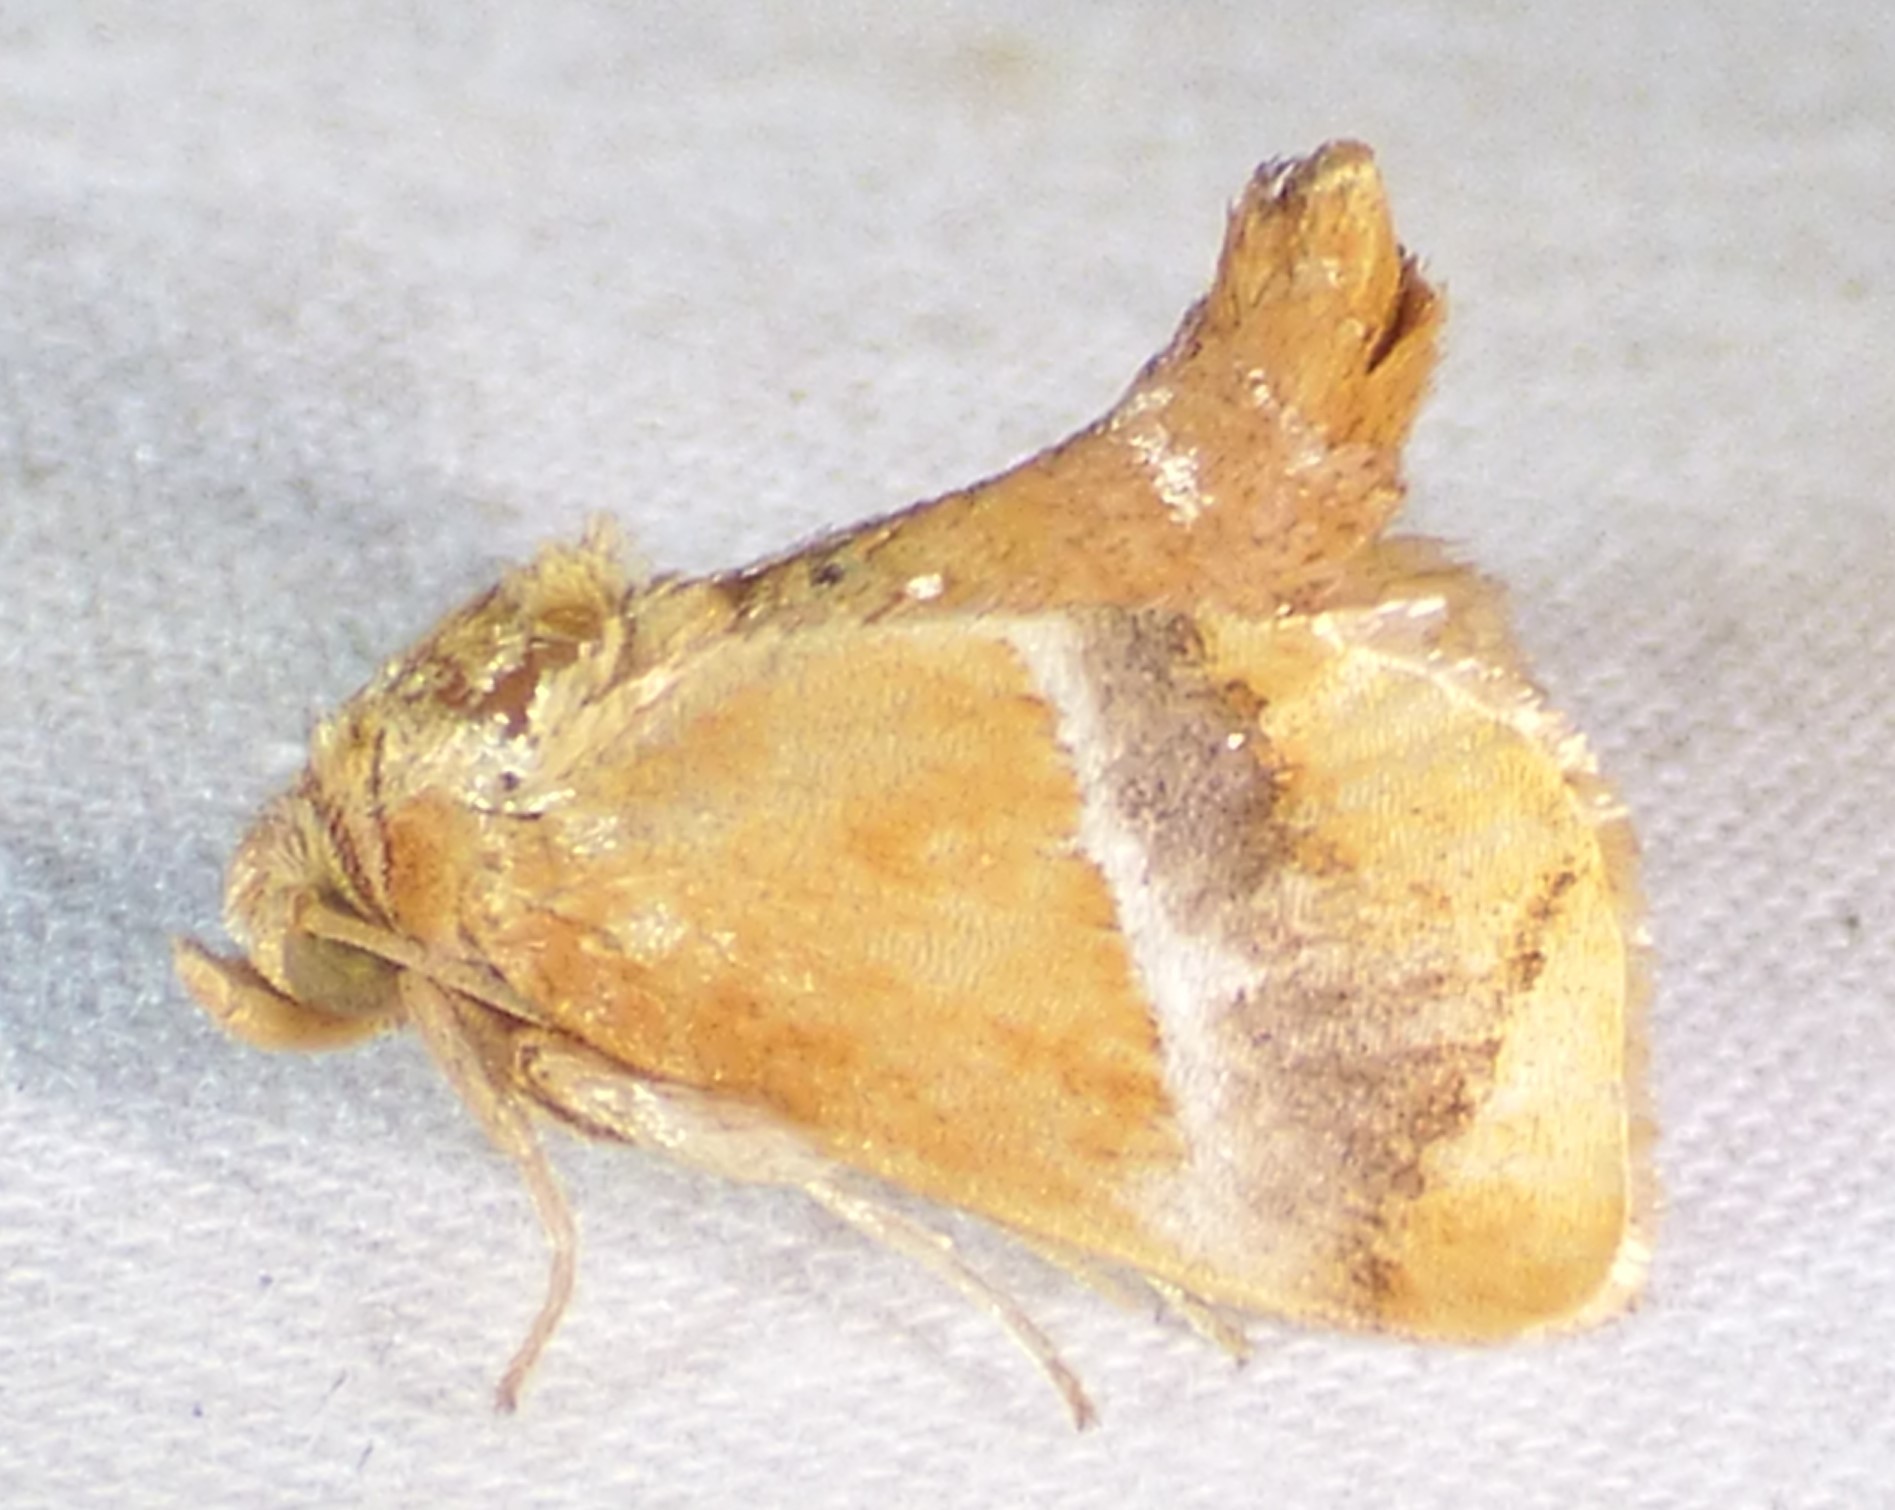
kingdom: Animalia
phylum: Arthropoda
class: Insecta
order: Lepidoptera
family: Limacodidae
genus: Lithacodes
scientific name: Lithacodes fasciola
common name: Yellow-shouldered slug moth
